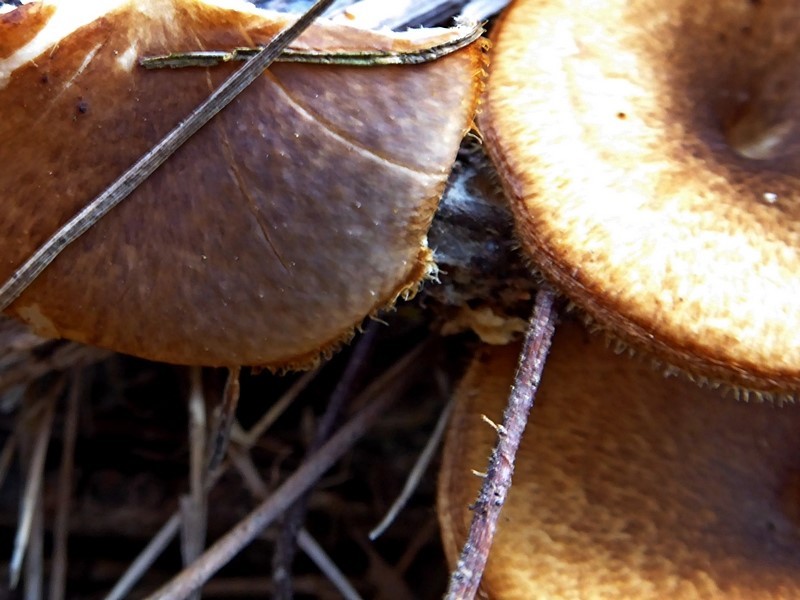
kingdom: Fungi
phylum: Basidiomycota
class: Agaricomycetes
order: Polyporales
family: Polyporaceae
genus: Lentinus
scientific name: Lentinus arcularius
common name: Spring polypore
